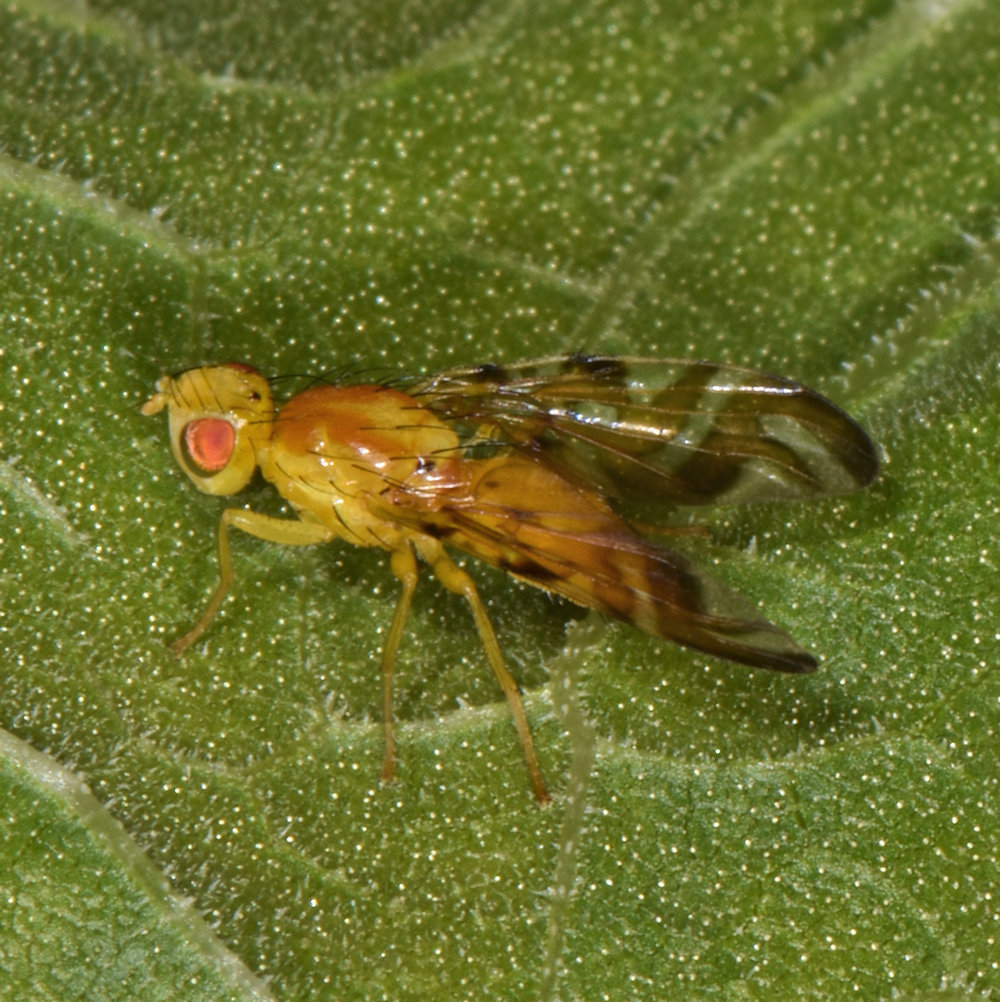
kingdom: Animalia
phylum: Arthropoda
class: Insecta
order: Diptera
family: Tephritidae
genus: Strauzia
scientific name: Strauzia longipennis
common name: Sunflower maggot
